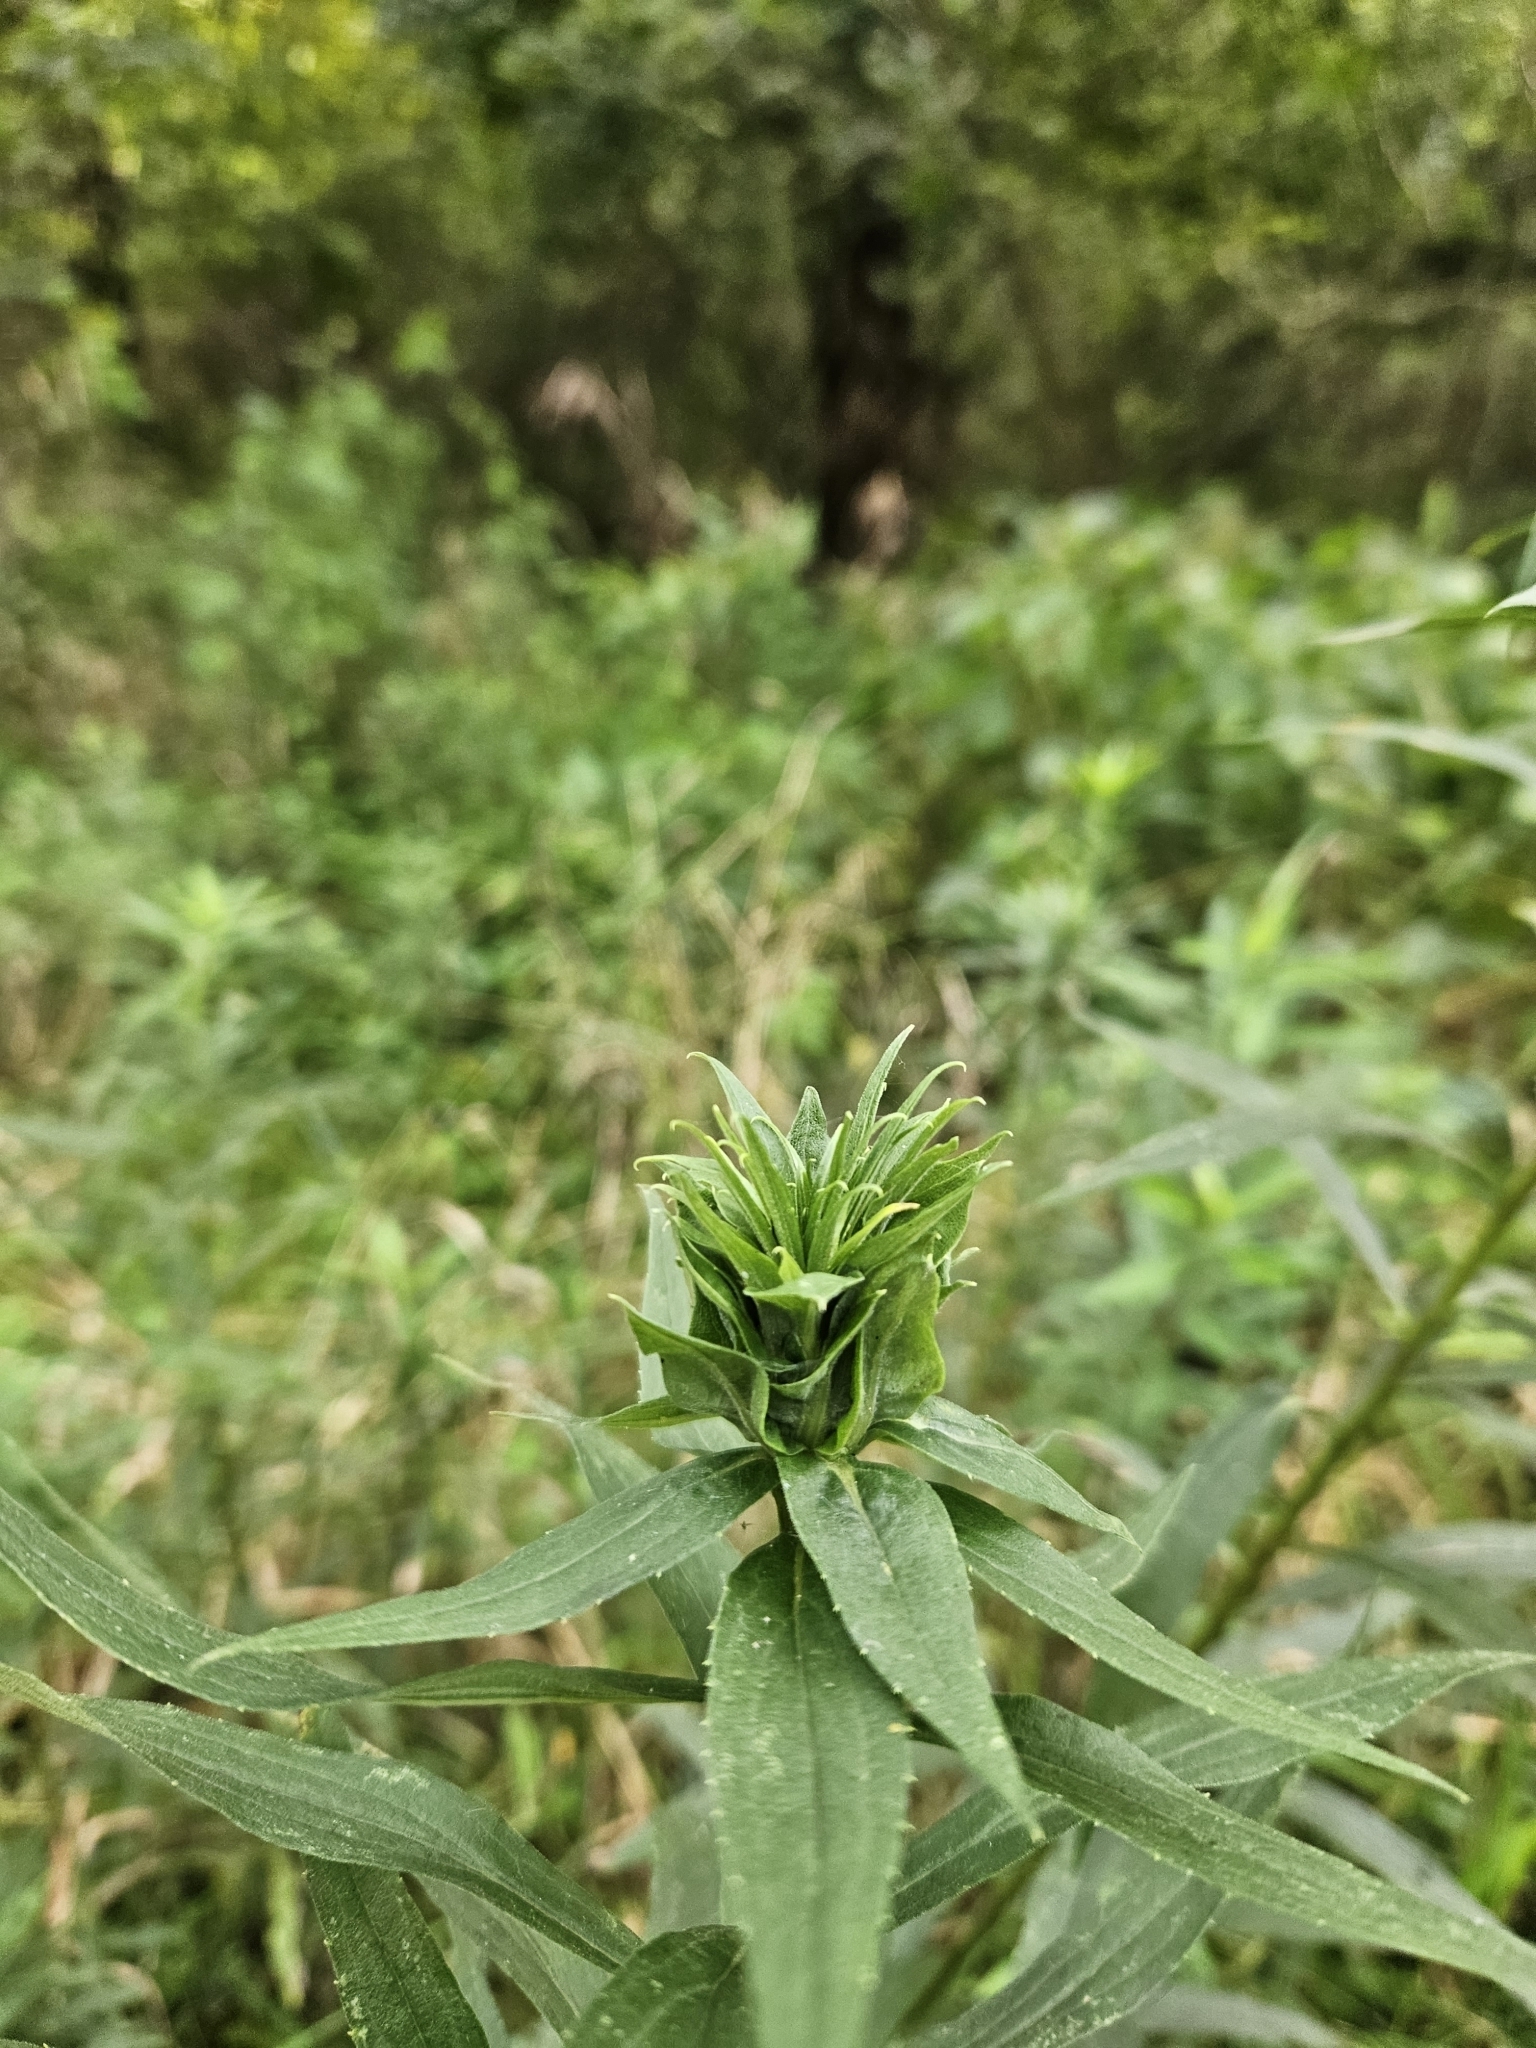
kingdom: Animalia
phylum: Arthropoda
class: Insecta
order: Diptera
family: Cecidomyiidae
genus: Rhopalomyia
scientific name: Rhopalomyia solidaginis
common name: Goldenrod bunch gall midge
